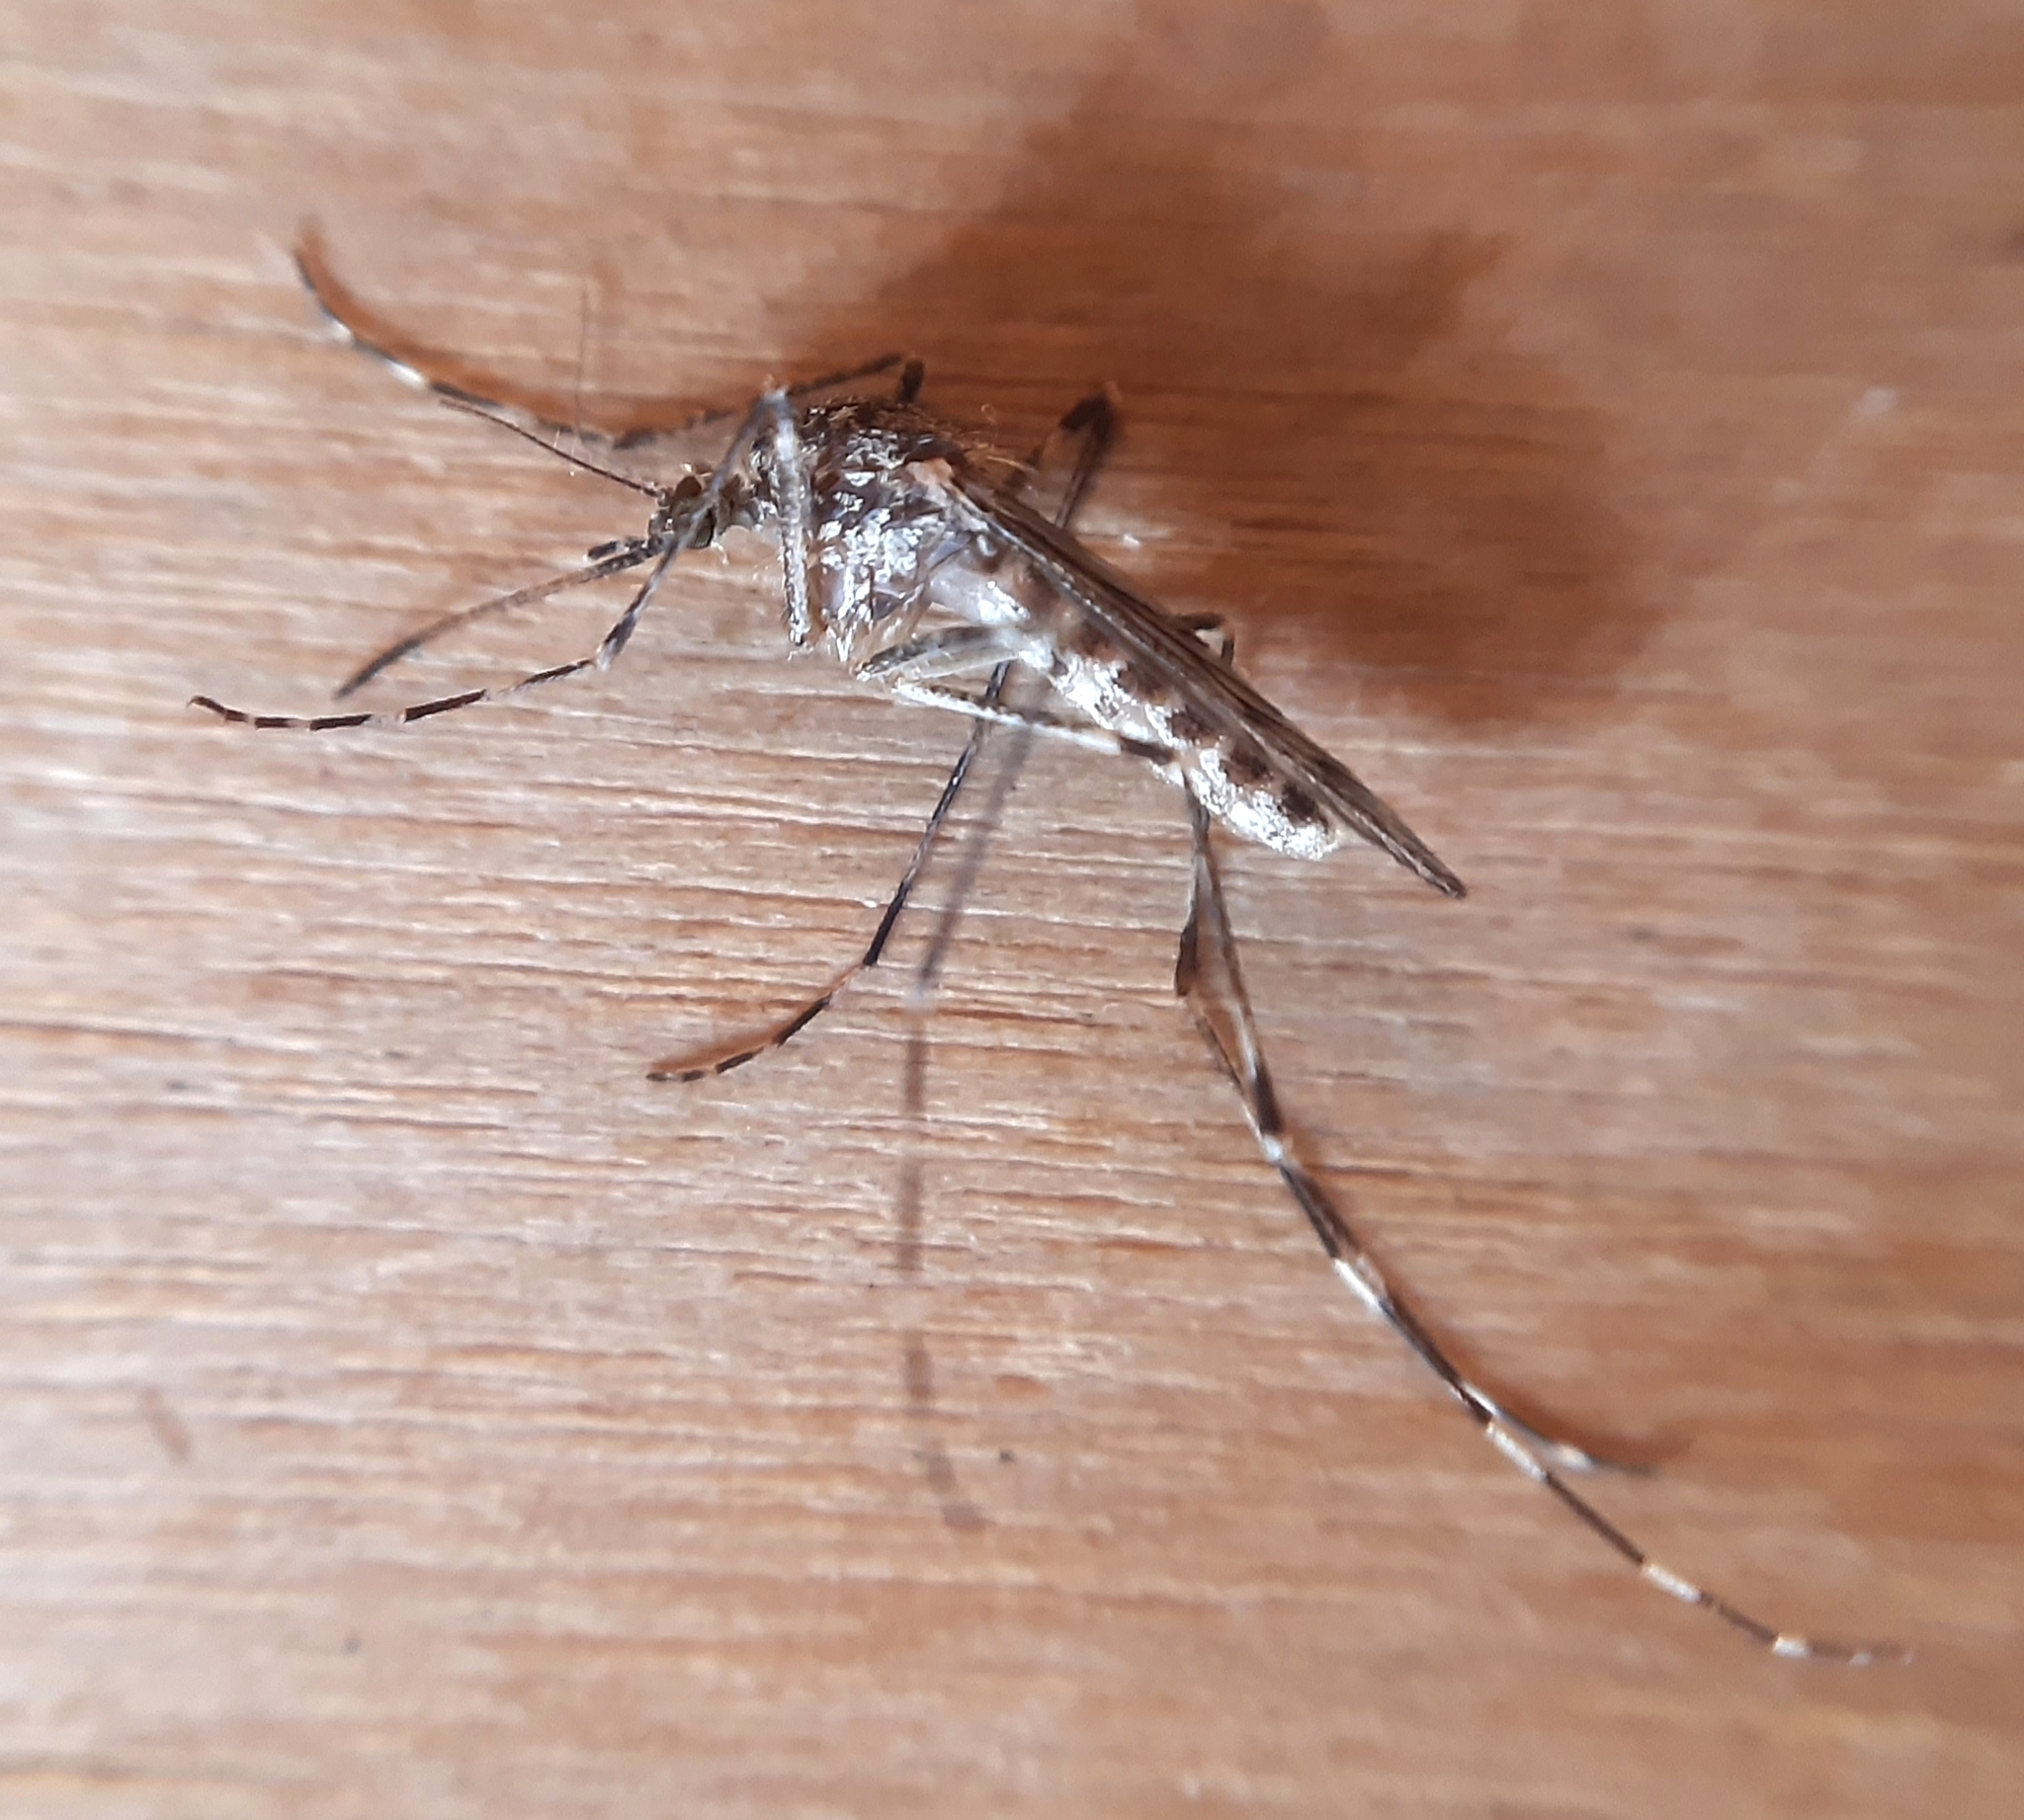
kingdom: Animalia
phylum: Arthropoda
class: Insecta
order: Diptera
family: Culicidae
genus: Culiseta
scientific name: Culiseta annulata
